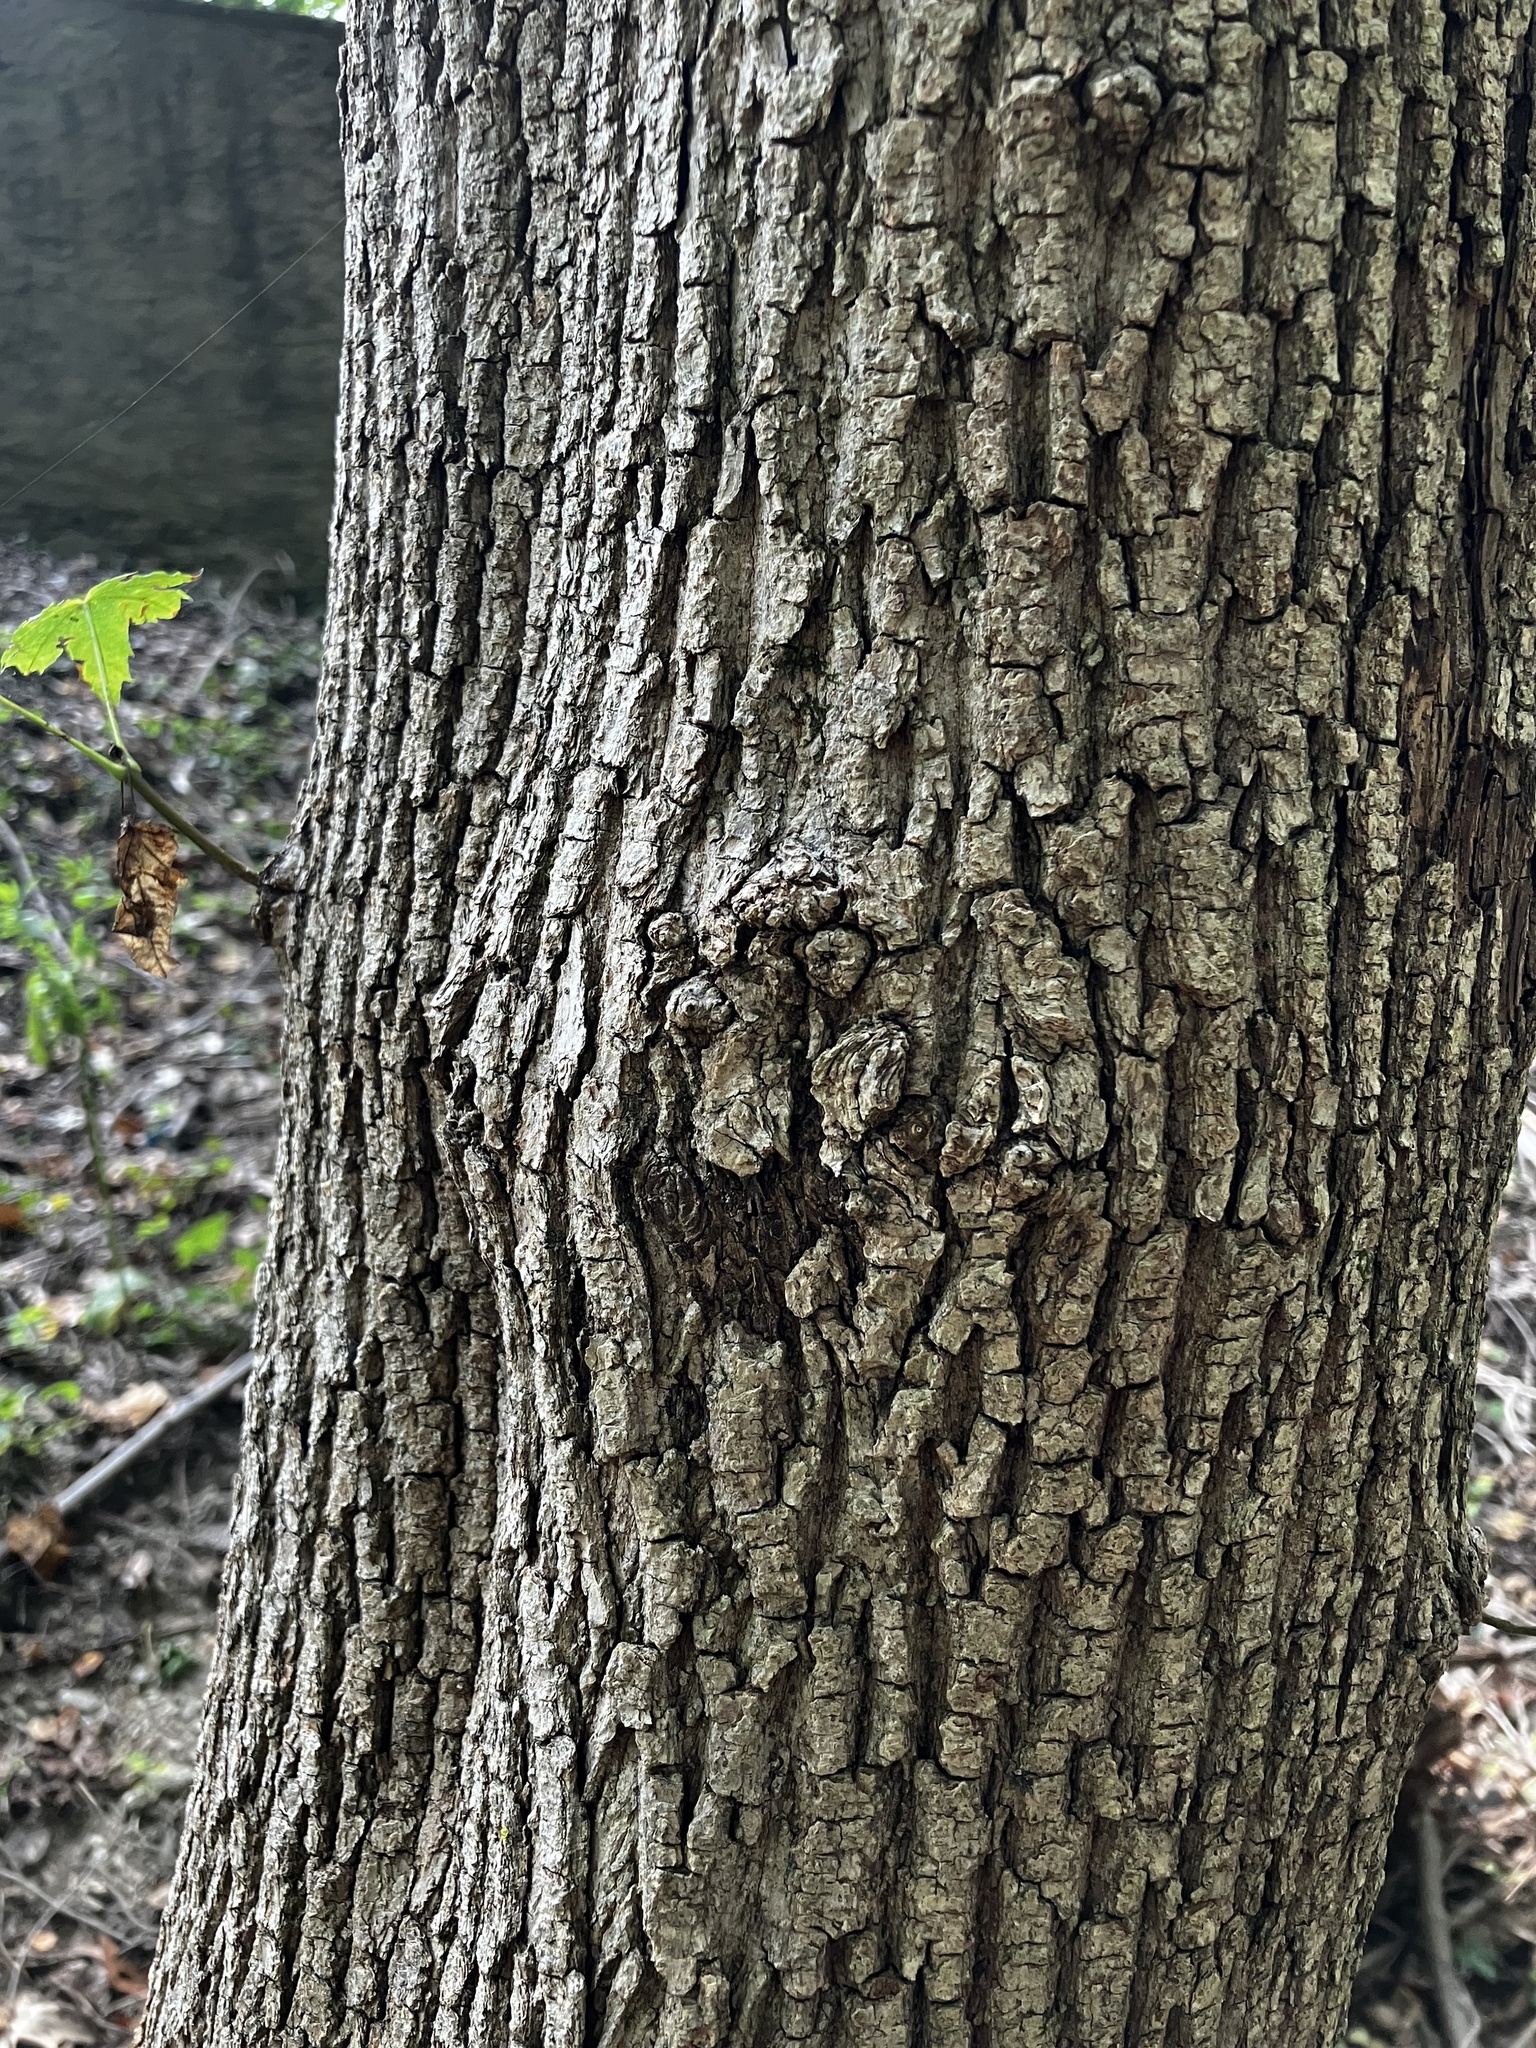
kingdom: Plantae
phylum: Tracheophyta
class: Magnoliopsida
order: Sapindales
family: Sapindaceae
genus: Acer
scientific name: Acer platanoides
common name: Norway maple
